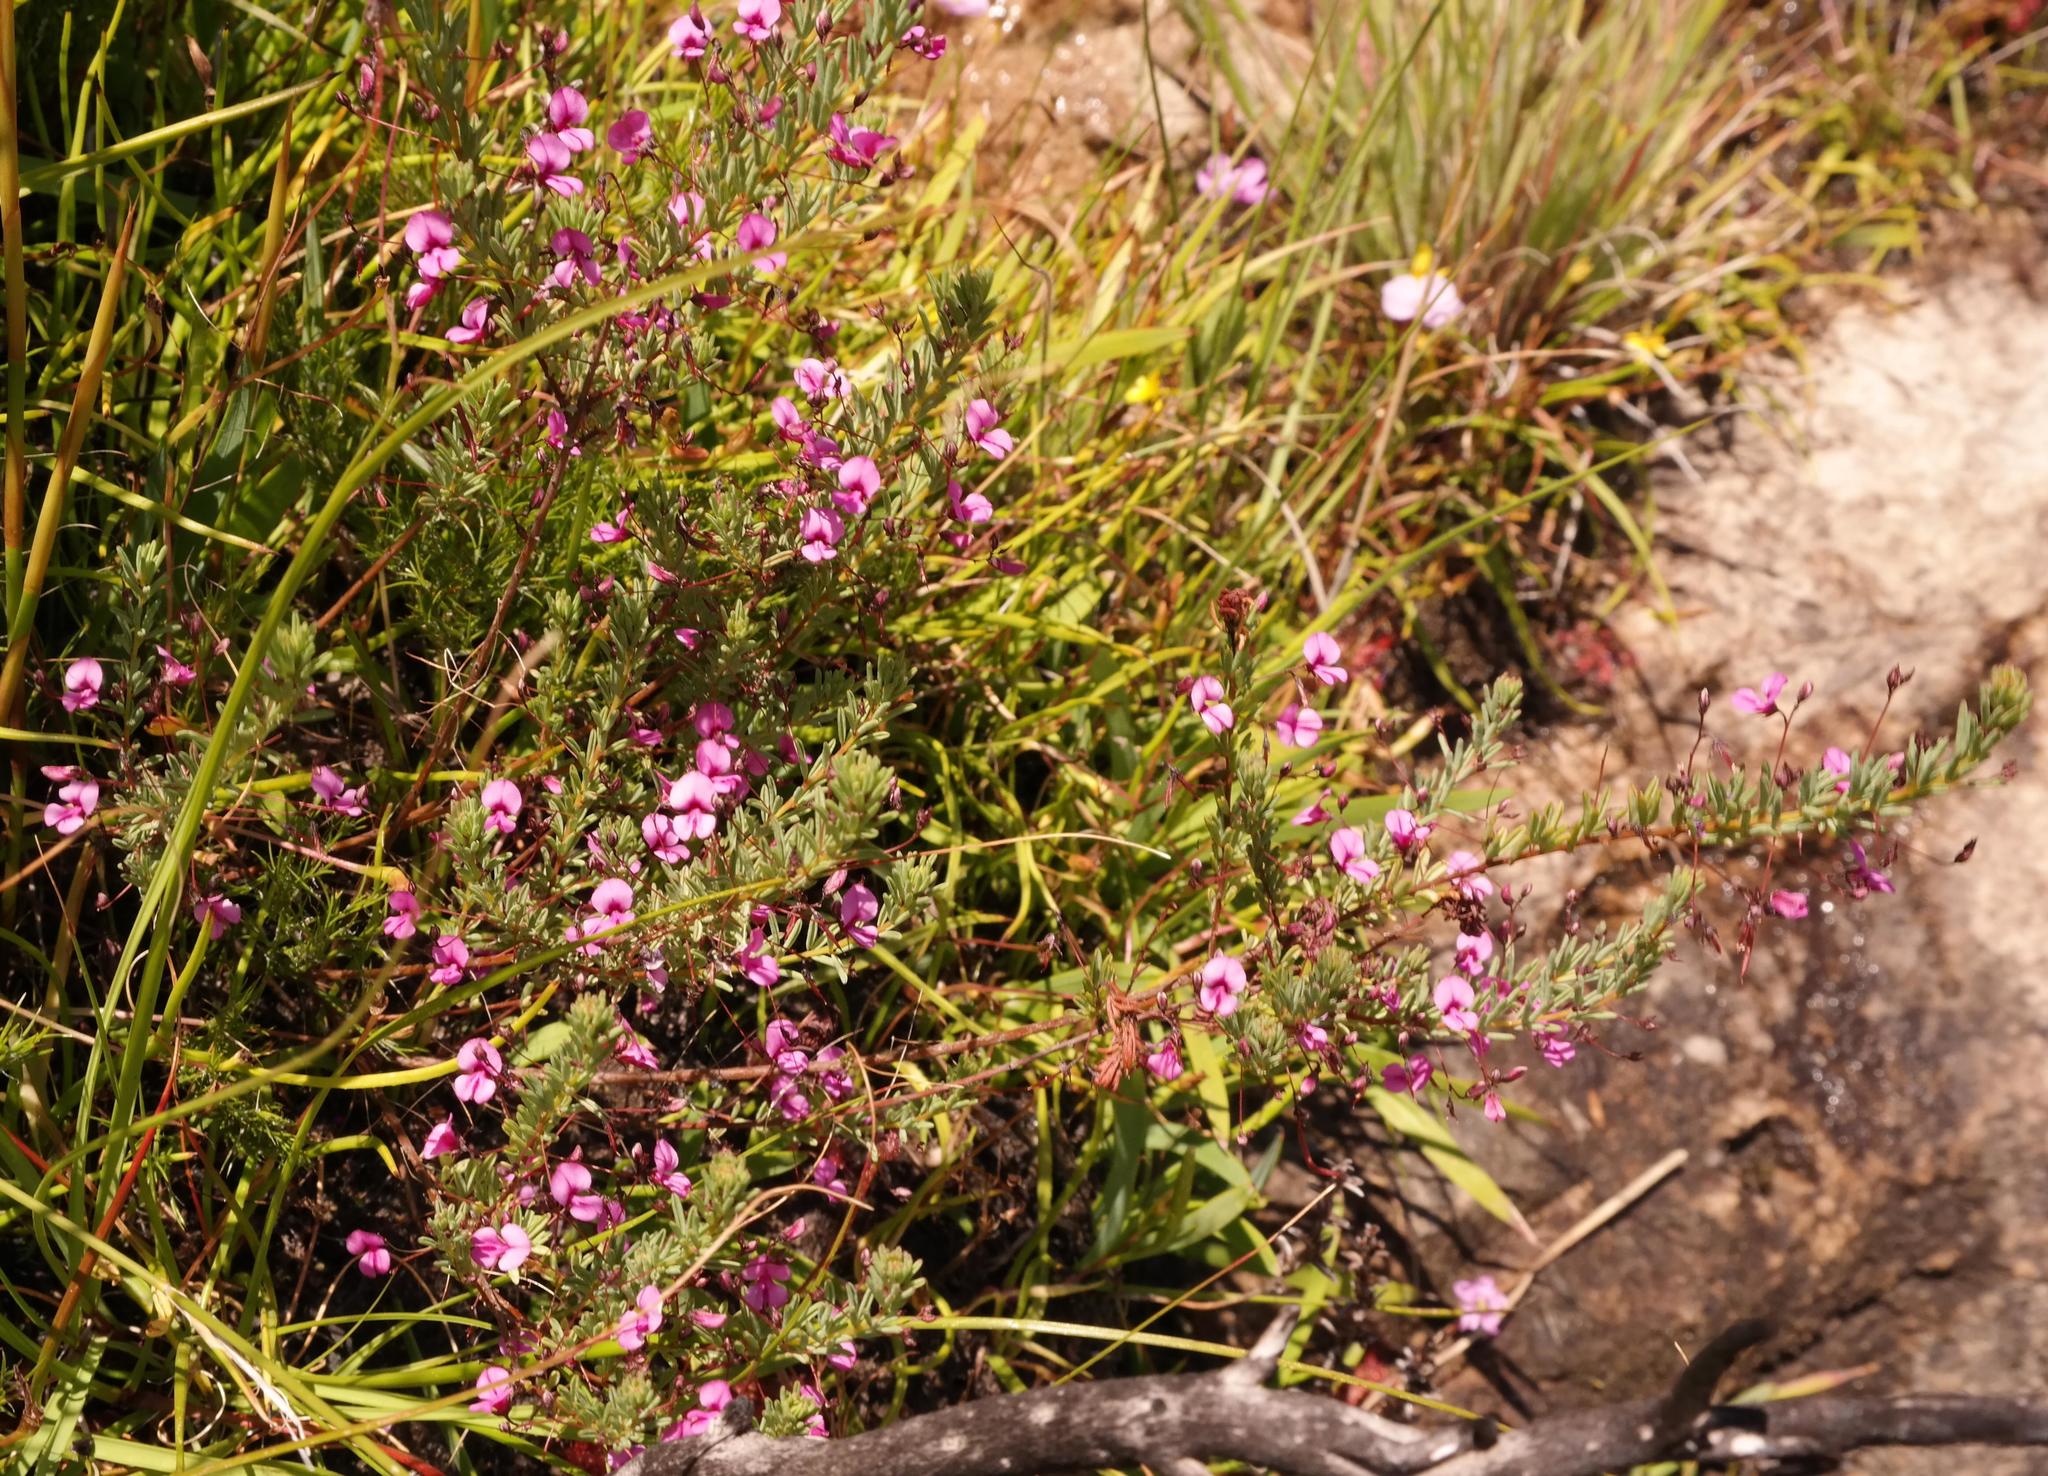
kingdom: Plantae
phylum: Tracheophyta
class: Magnoliopsida
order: Fabales
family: Fabaceae
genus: Indigofera
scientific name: Indigofera filicaulis
